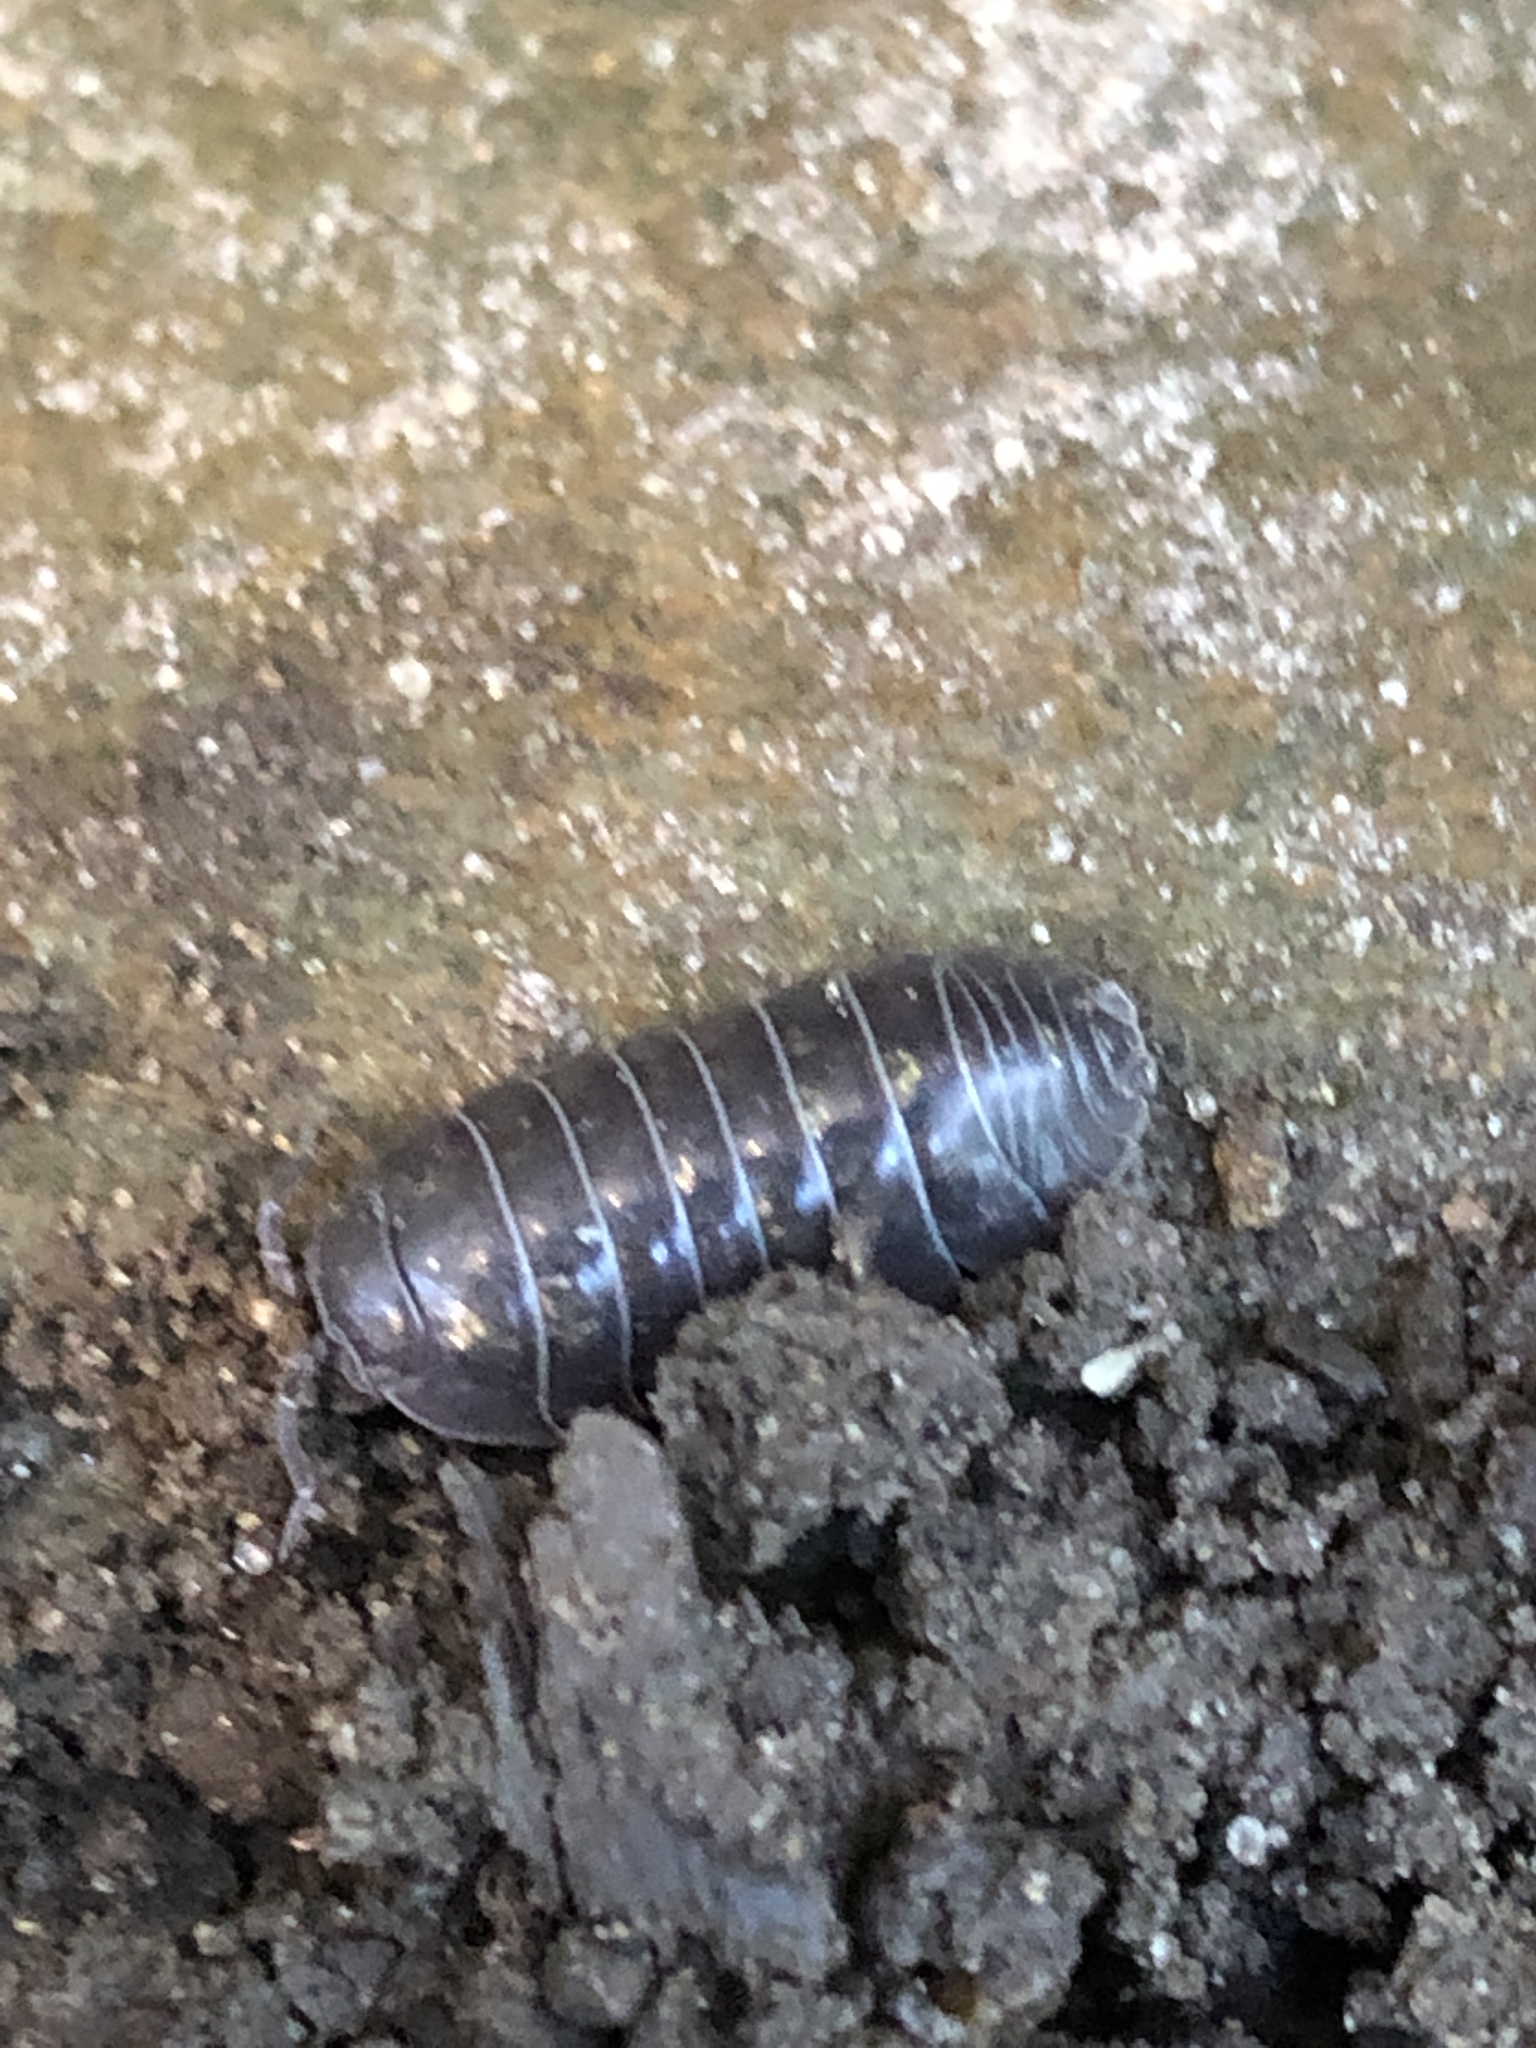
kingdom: Animalia
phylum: Arthropoda
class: Malacostraca
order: Isopoda
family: Armadillidiidae
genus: Armadillidium
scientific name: Armadillidium vulgare
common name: Common pill woodlouse
